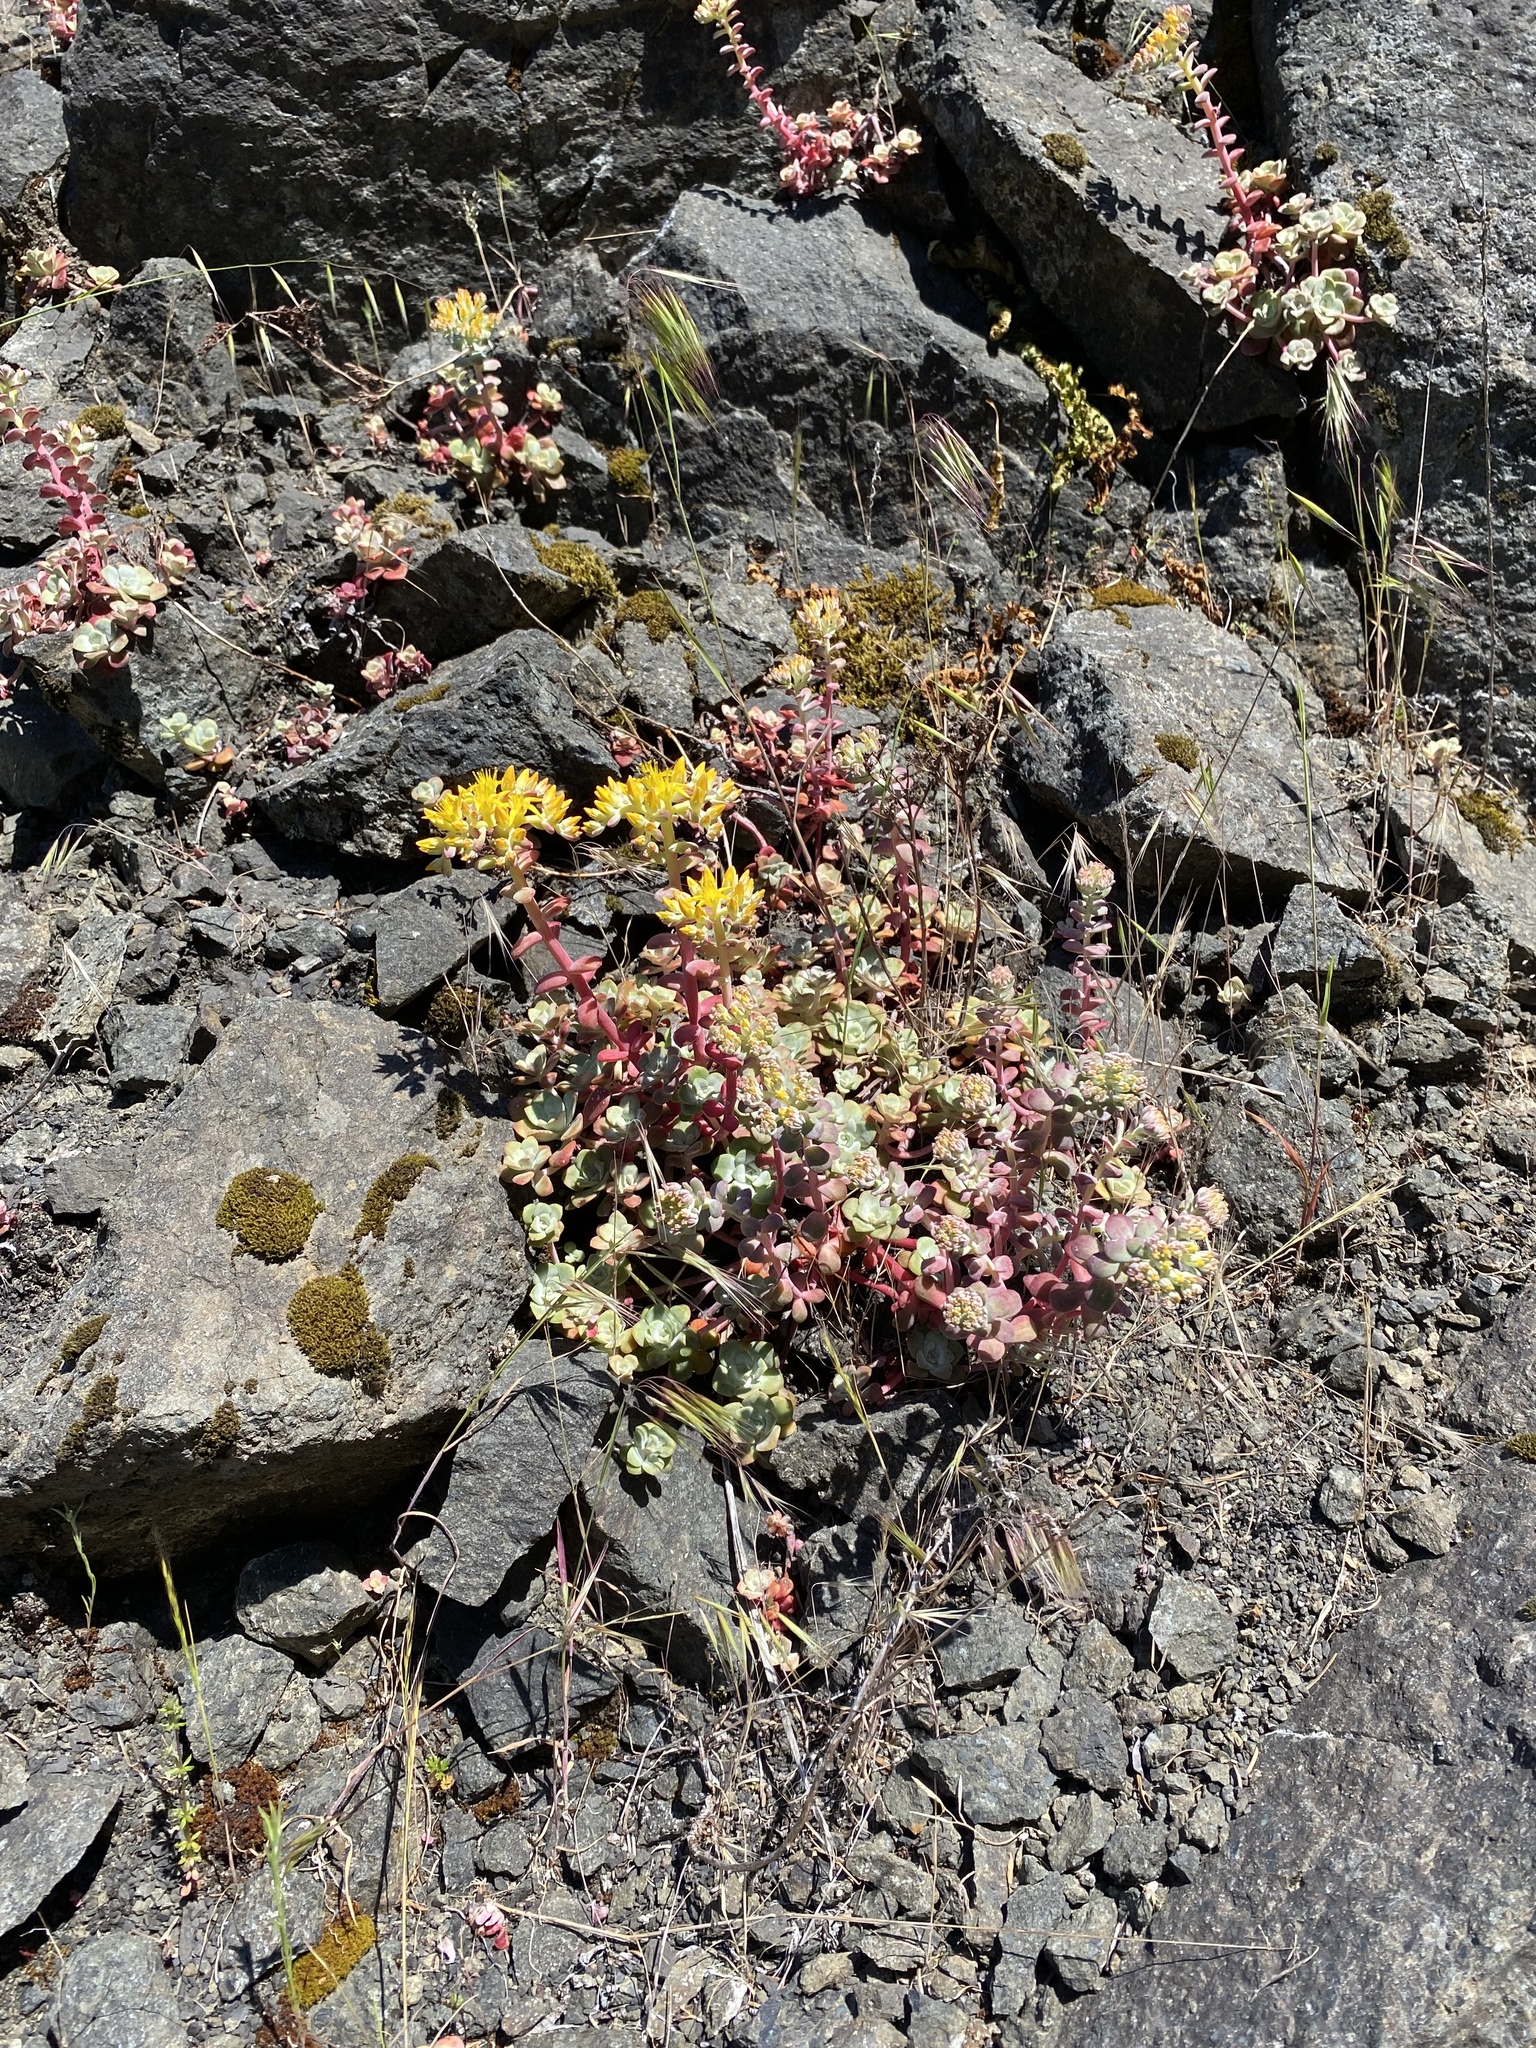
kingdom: Plantae
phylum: Tracheophyta
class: Magnoliopsida
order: Saxifragales
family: Crassulaceae
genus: Sedum
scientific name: Sedum spathulifolium
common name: Colorado stonecrop
